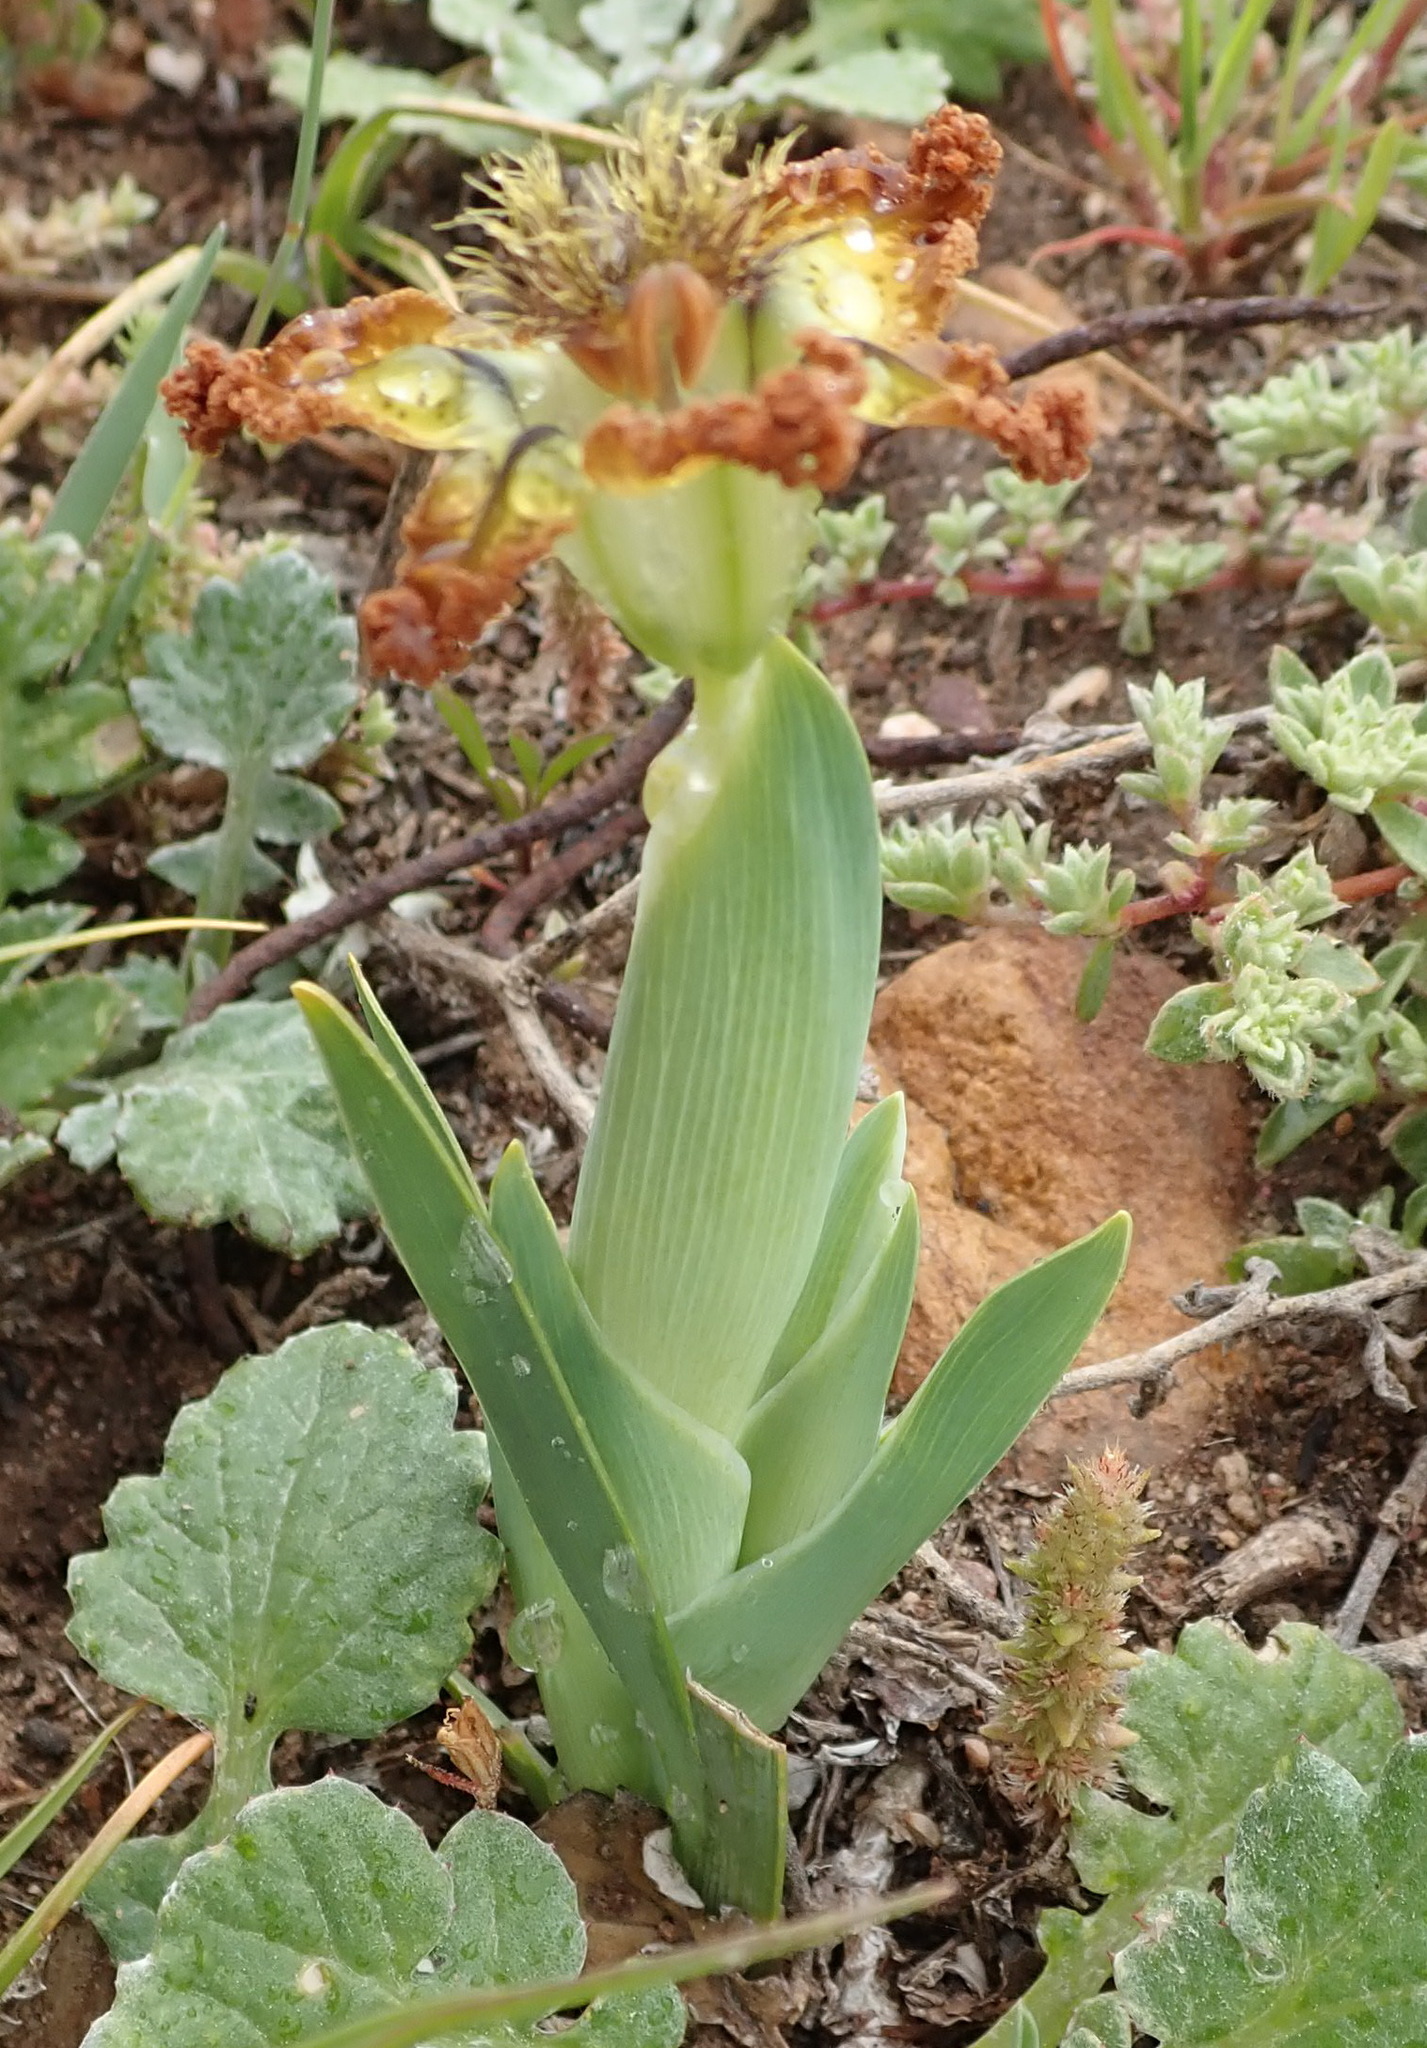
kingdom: Plantae
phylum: Tracheophyta
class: Liliopsida
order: Asparagales
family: Iridaceae
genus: Ferraria
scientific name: Ferraria variabilis
